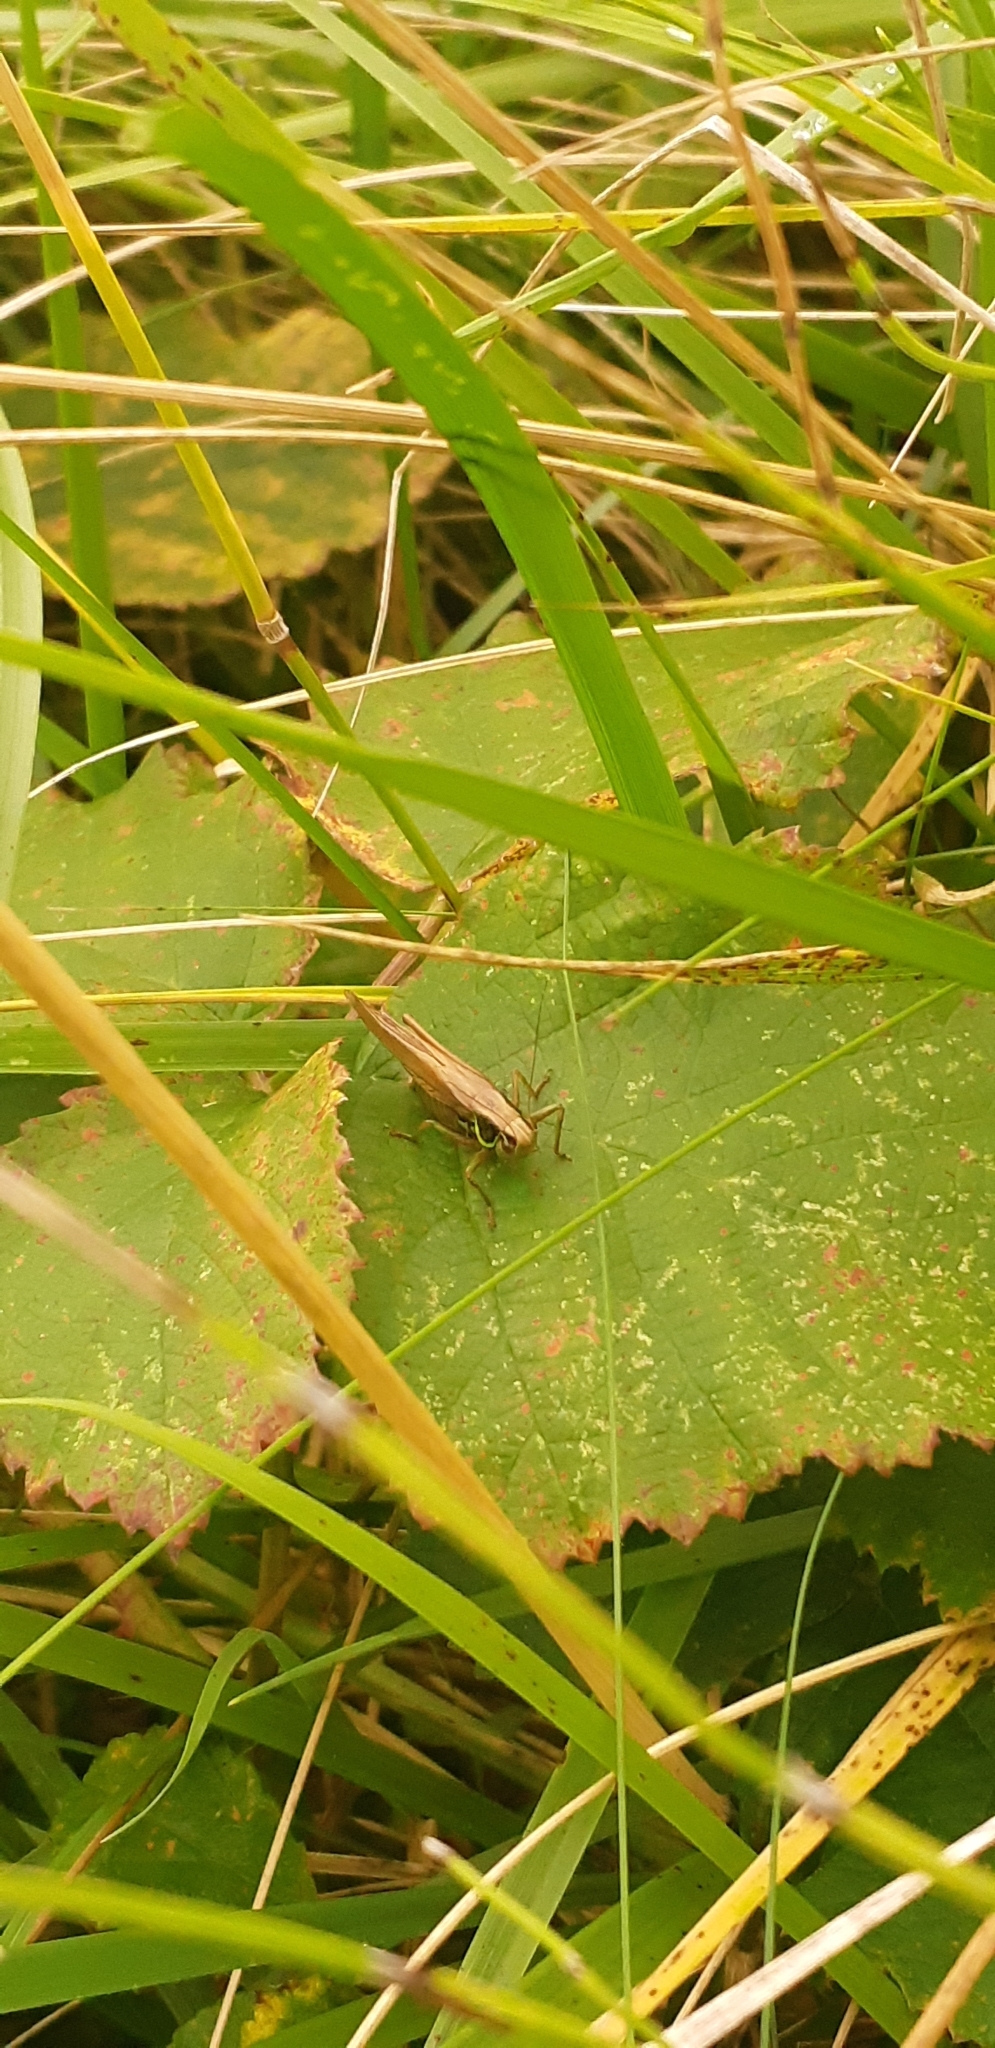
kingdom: Animalia
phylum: Arthropoda
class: Insecta
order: Orthoptera
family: Tettigoniidae
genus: Roeseliana
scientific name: Roeseliana roeselii
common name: Roesel's bush cricket
